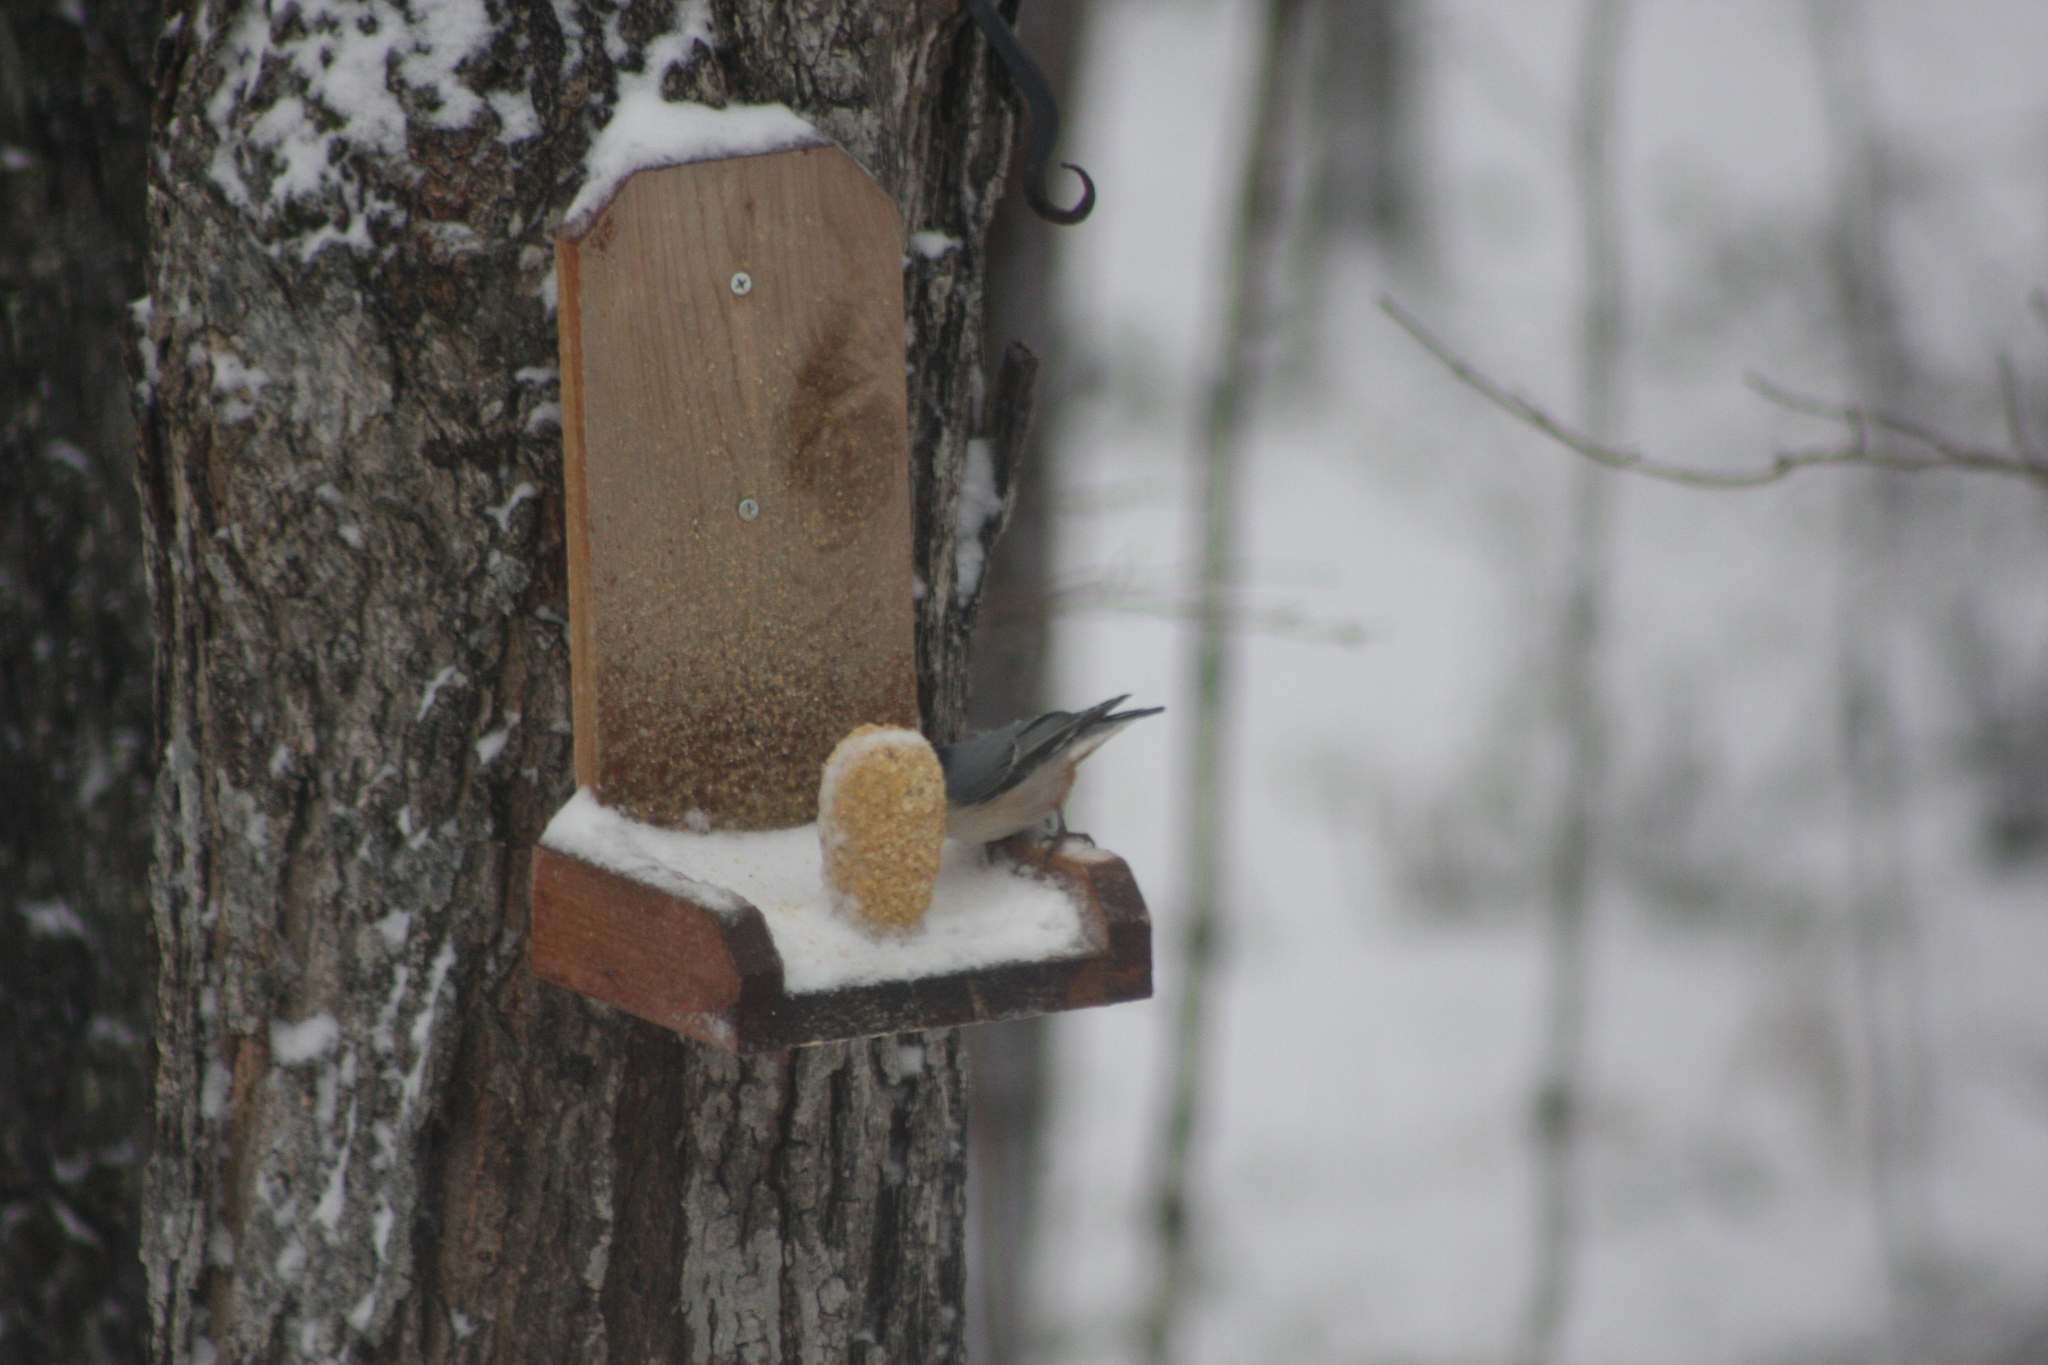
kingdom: Animalia
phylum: Chordata
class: Aves
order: Passeriformes
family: Sittidae
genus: Sitta
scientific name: Sitta carolinensis
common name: White-breasted nuthatch
